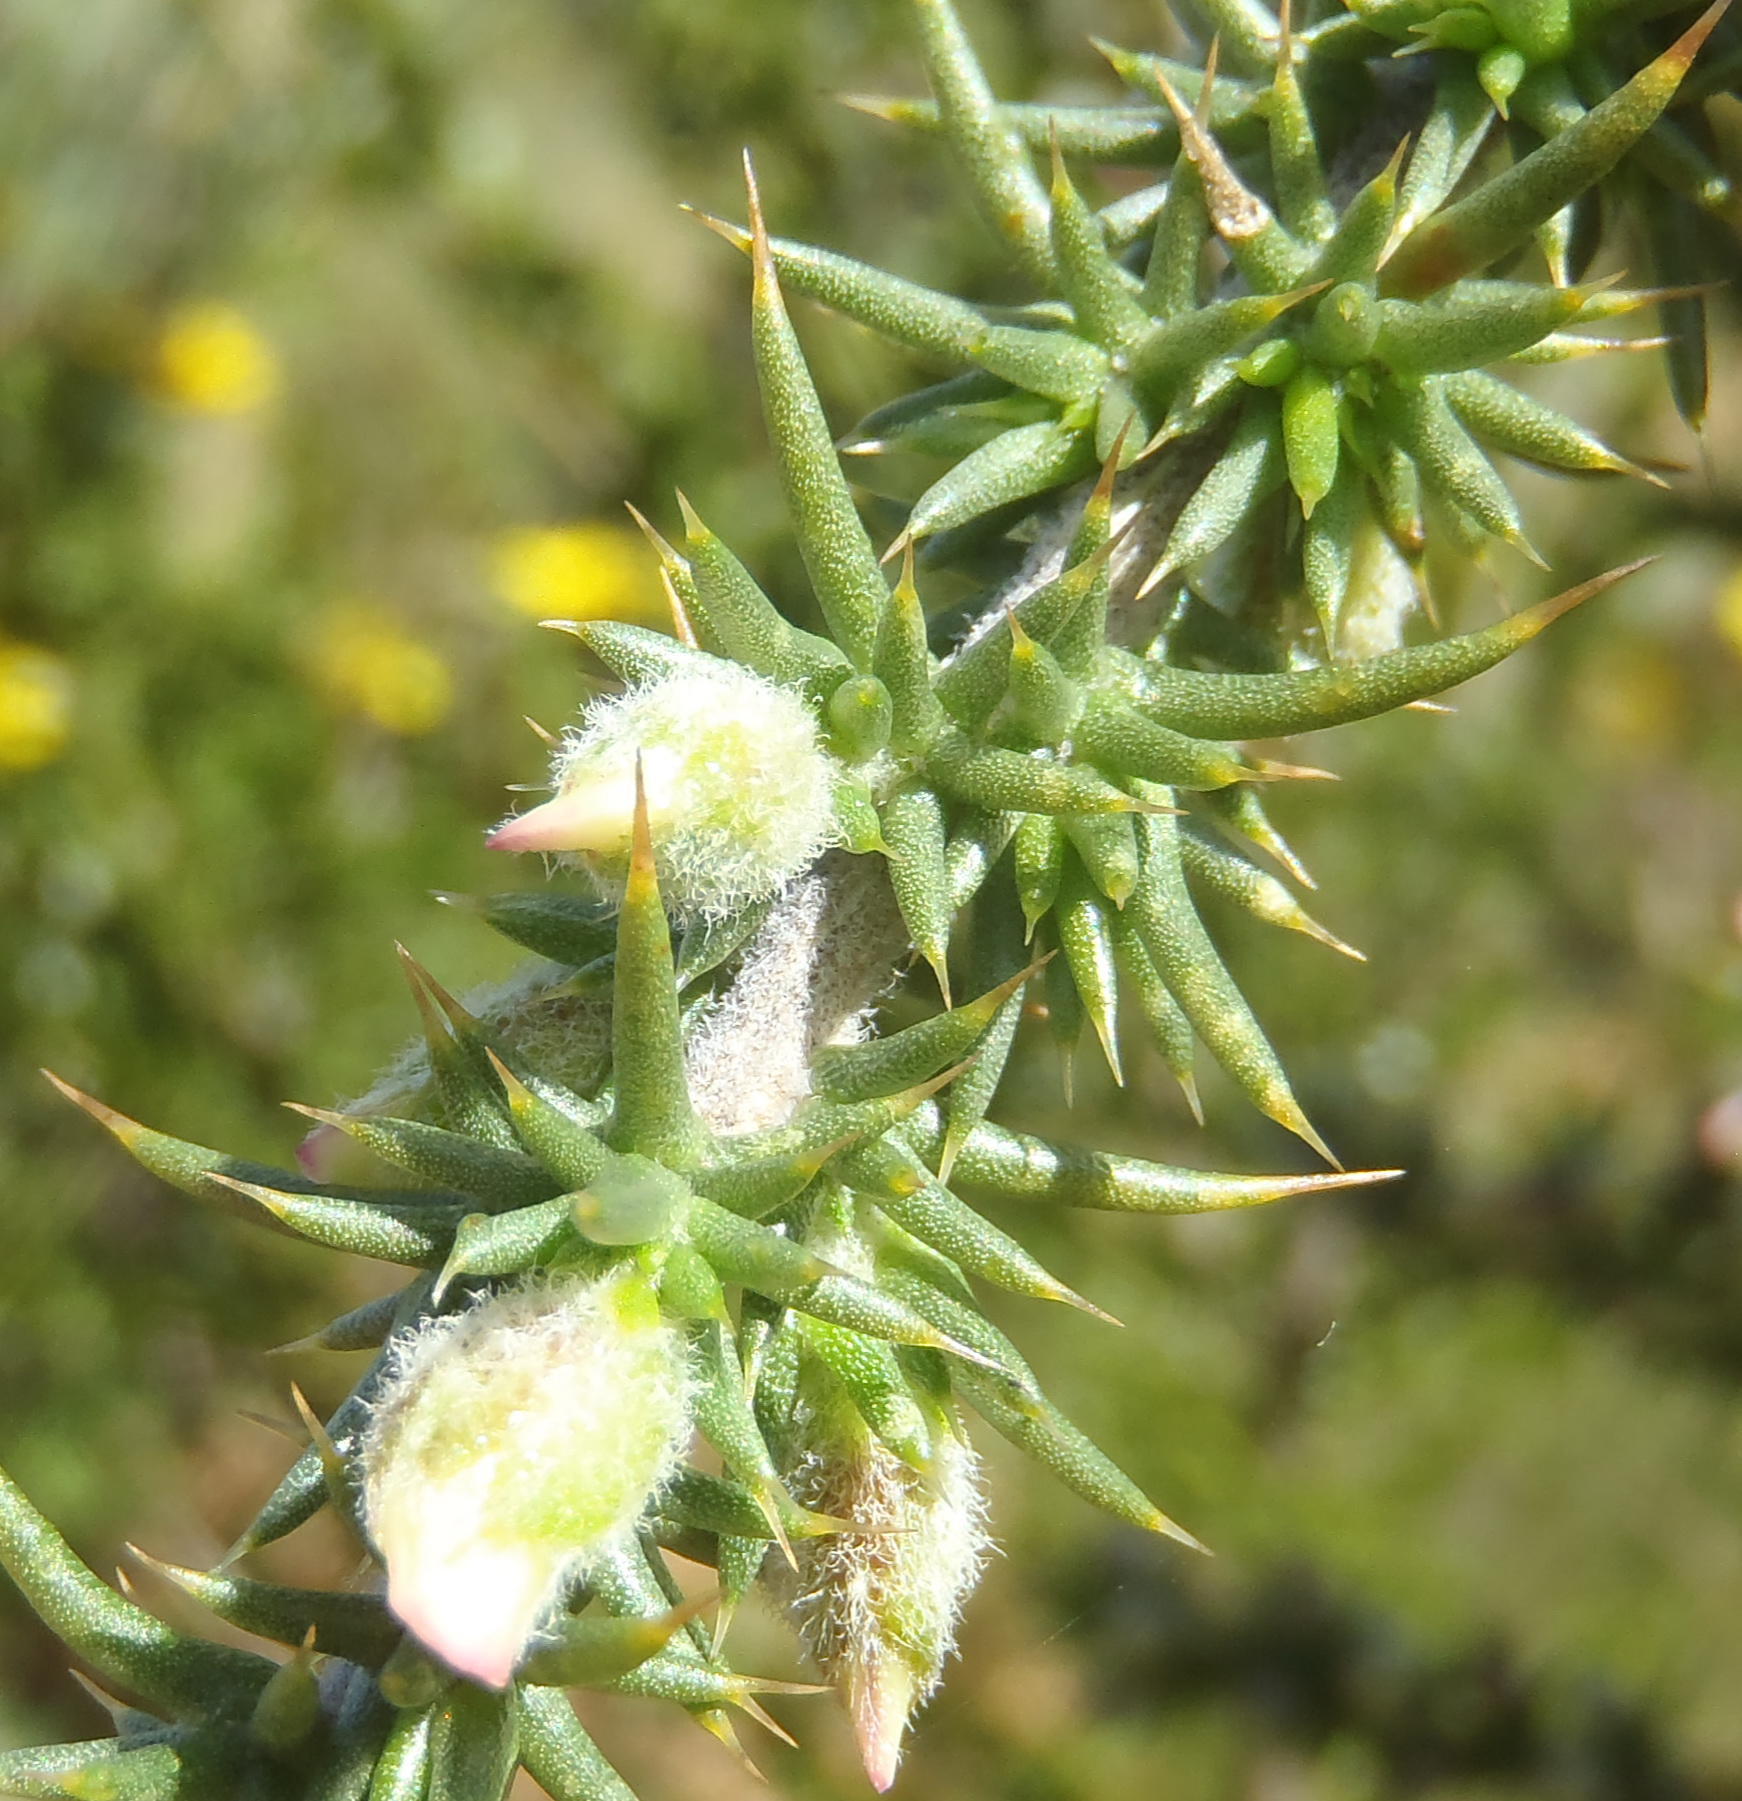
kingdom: Plantae
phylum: Tracheophyta
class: Magnoliopsida
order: Fabales
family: Fabaceae
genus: Aspalathus
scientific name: Aspalathus collina
